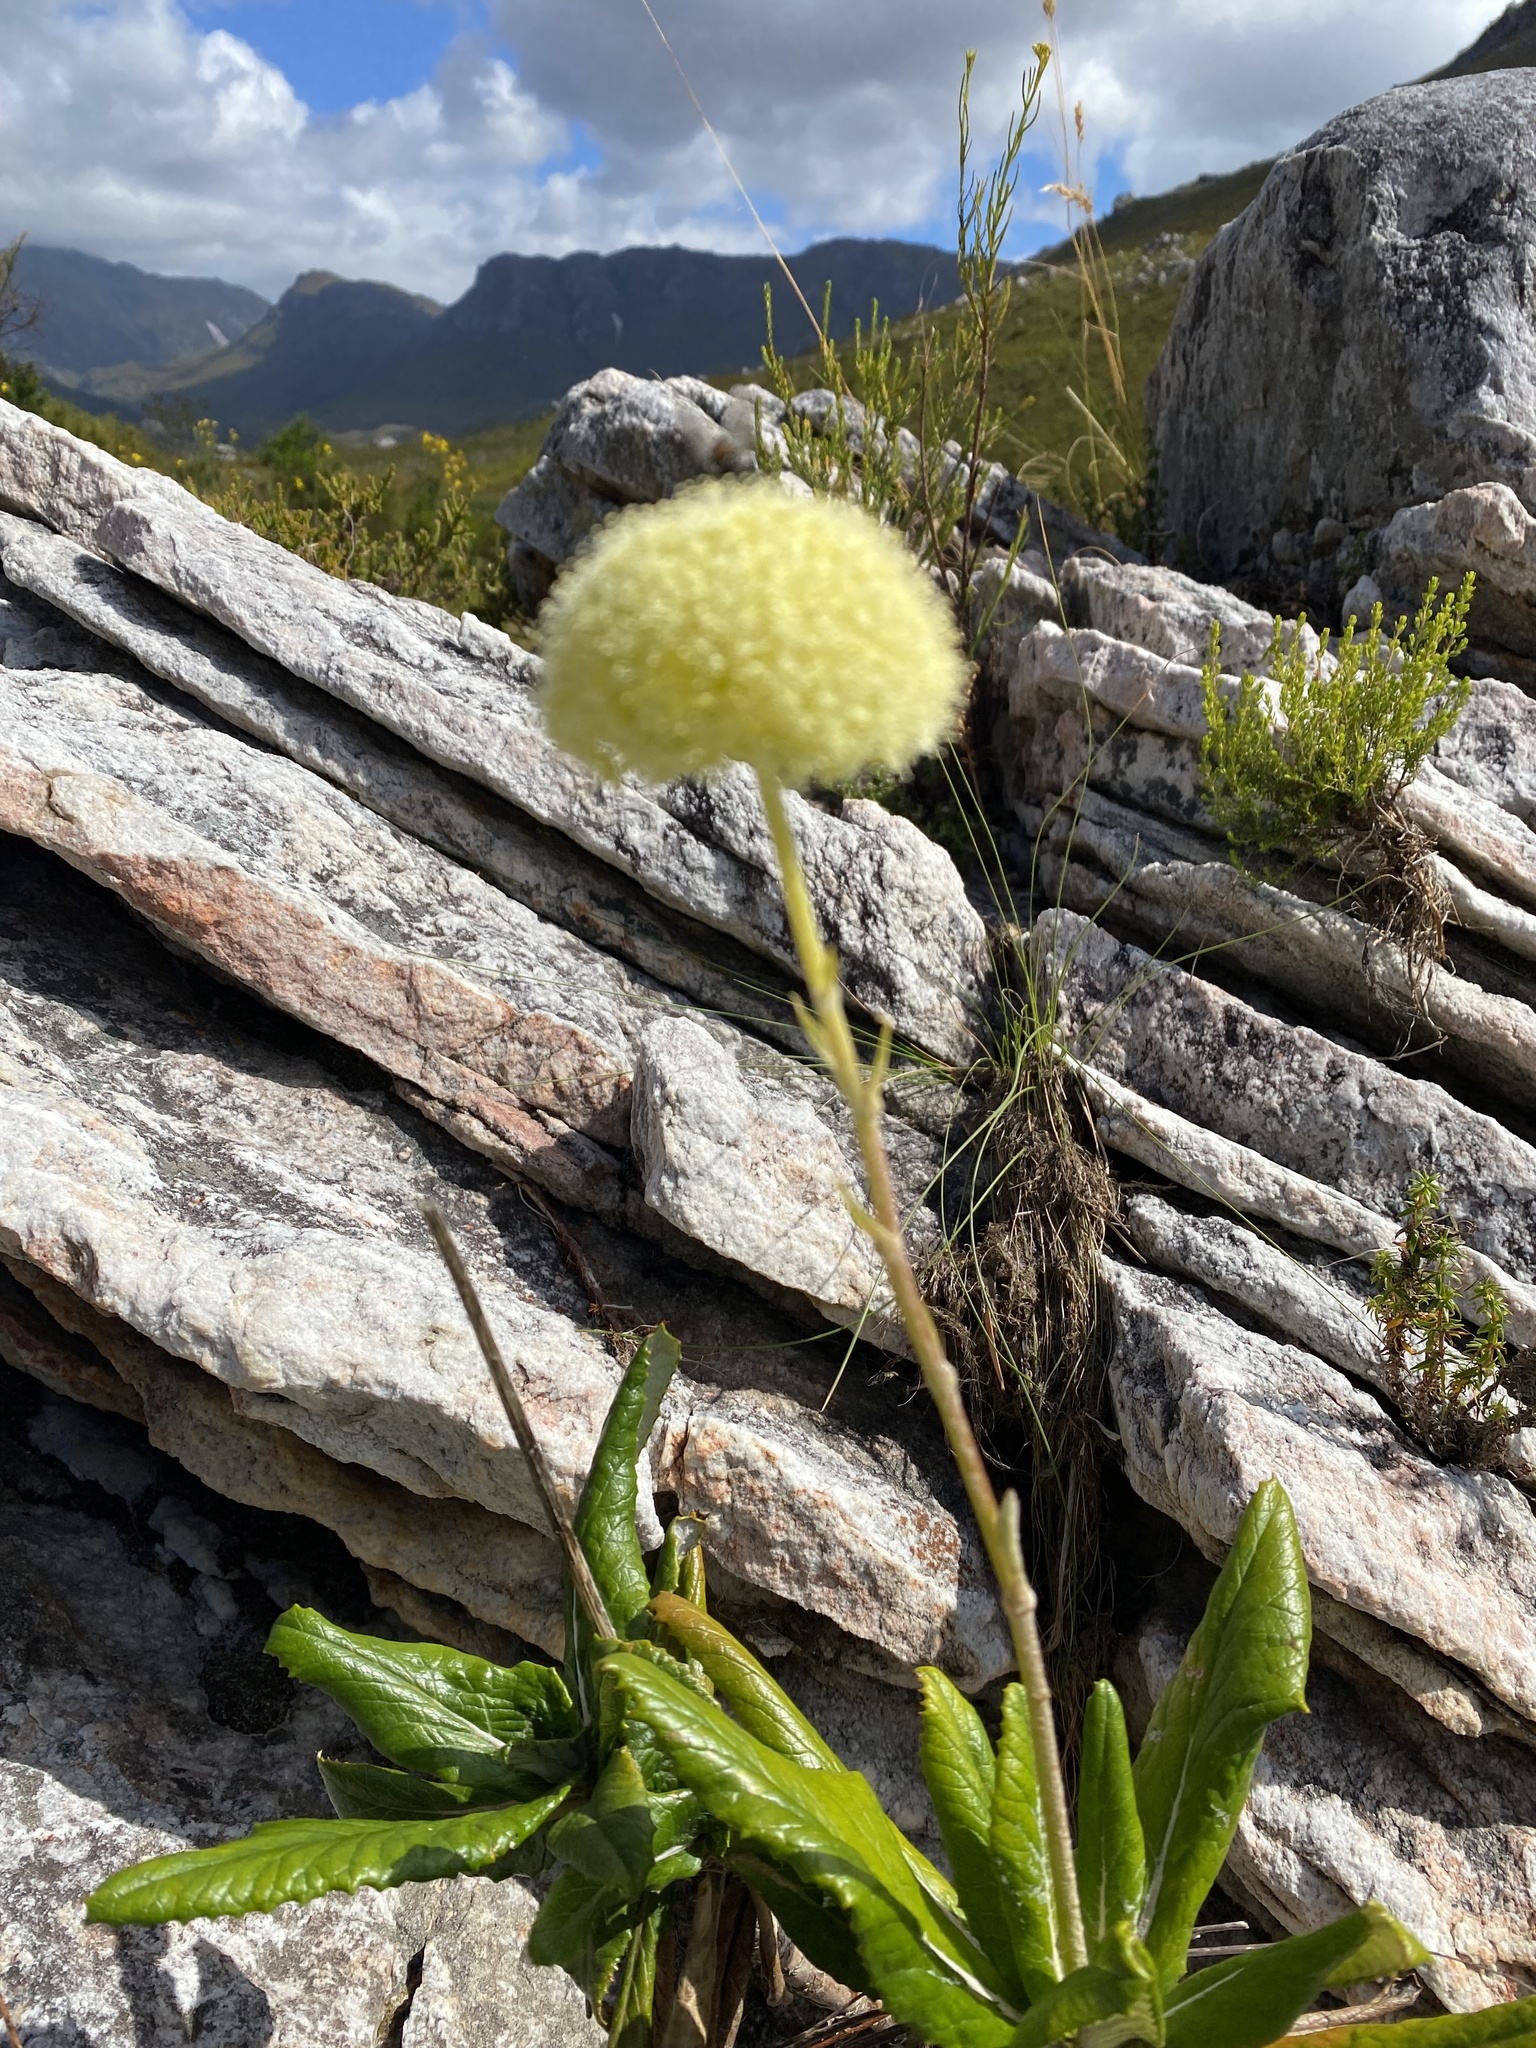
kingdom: Plantae
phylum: Tracheophyta
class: Magnoliopsida
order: Apiales
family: Apiaceae
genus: Hermas
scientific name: Hermas villosa
